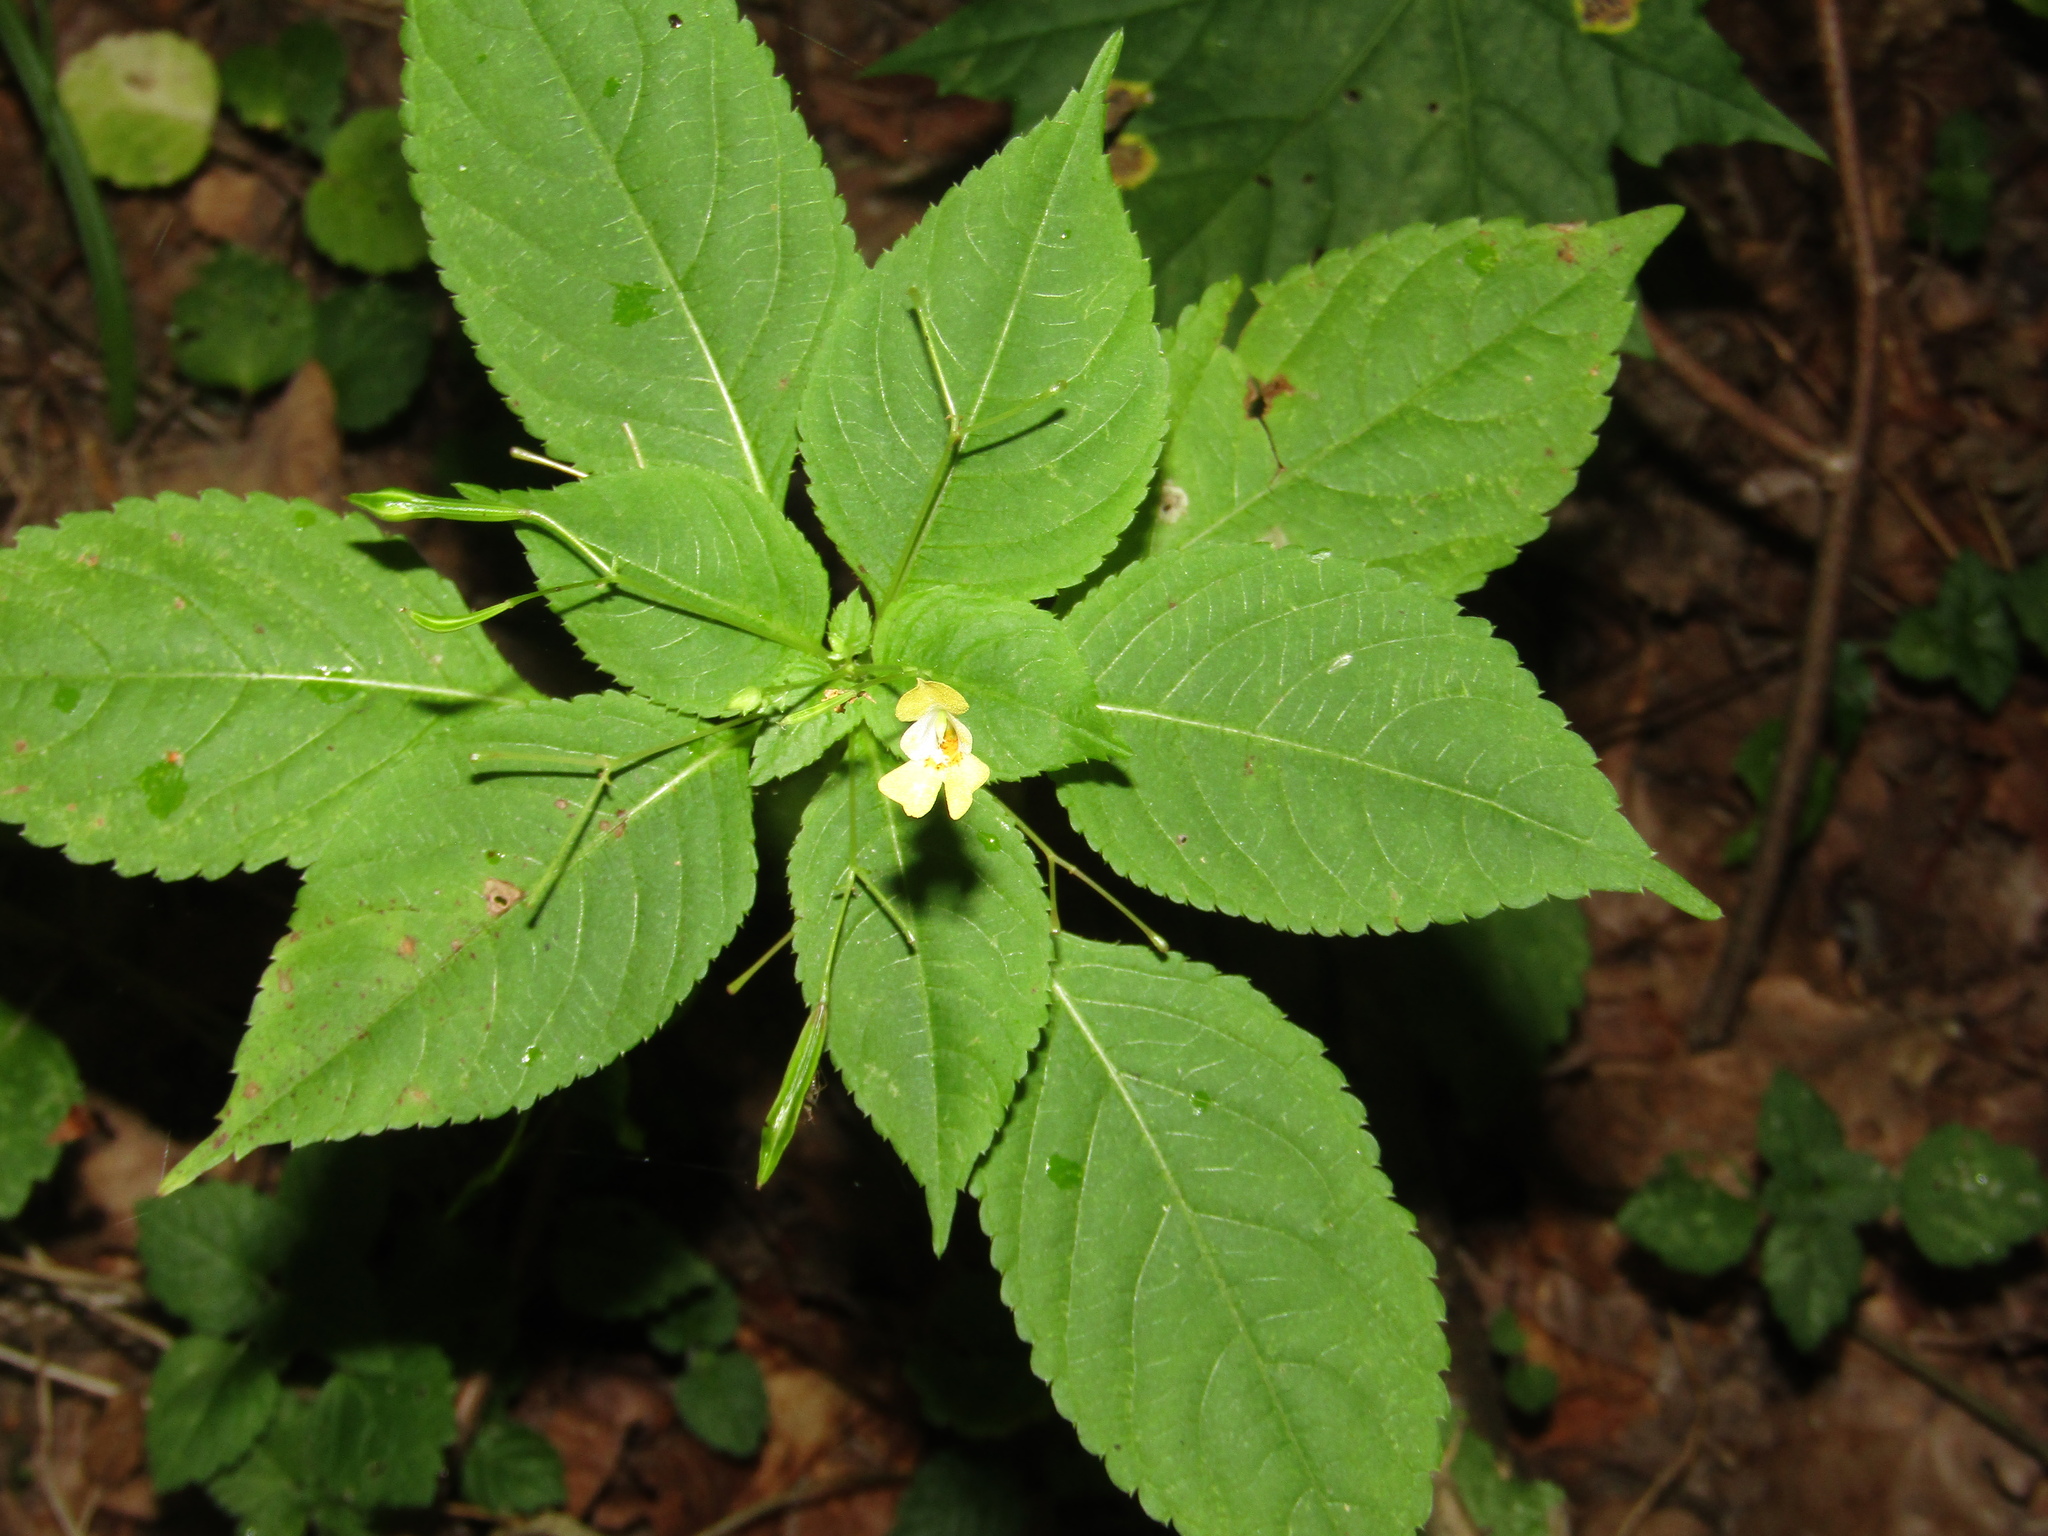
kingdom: Plantae
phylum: Tracheophyta
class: Magnoliopsida
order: Ericales
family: Balsaminaceae
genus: Impatiens
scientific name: Impatiens parviflora
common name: Small balsam
